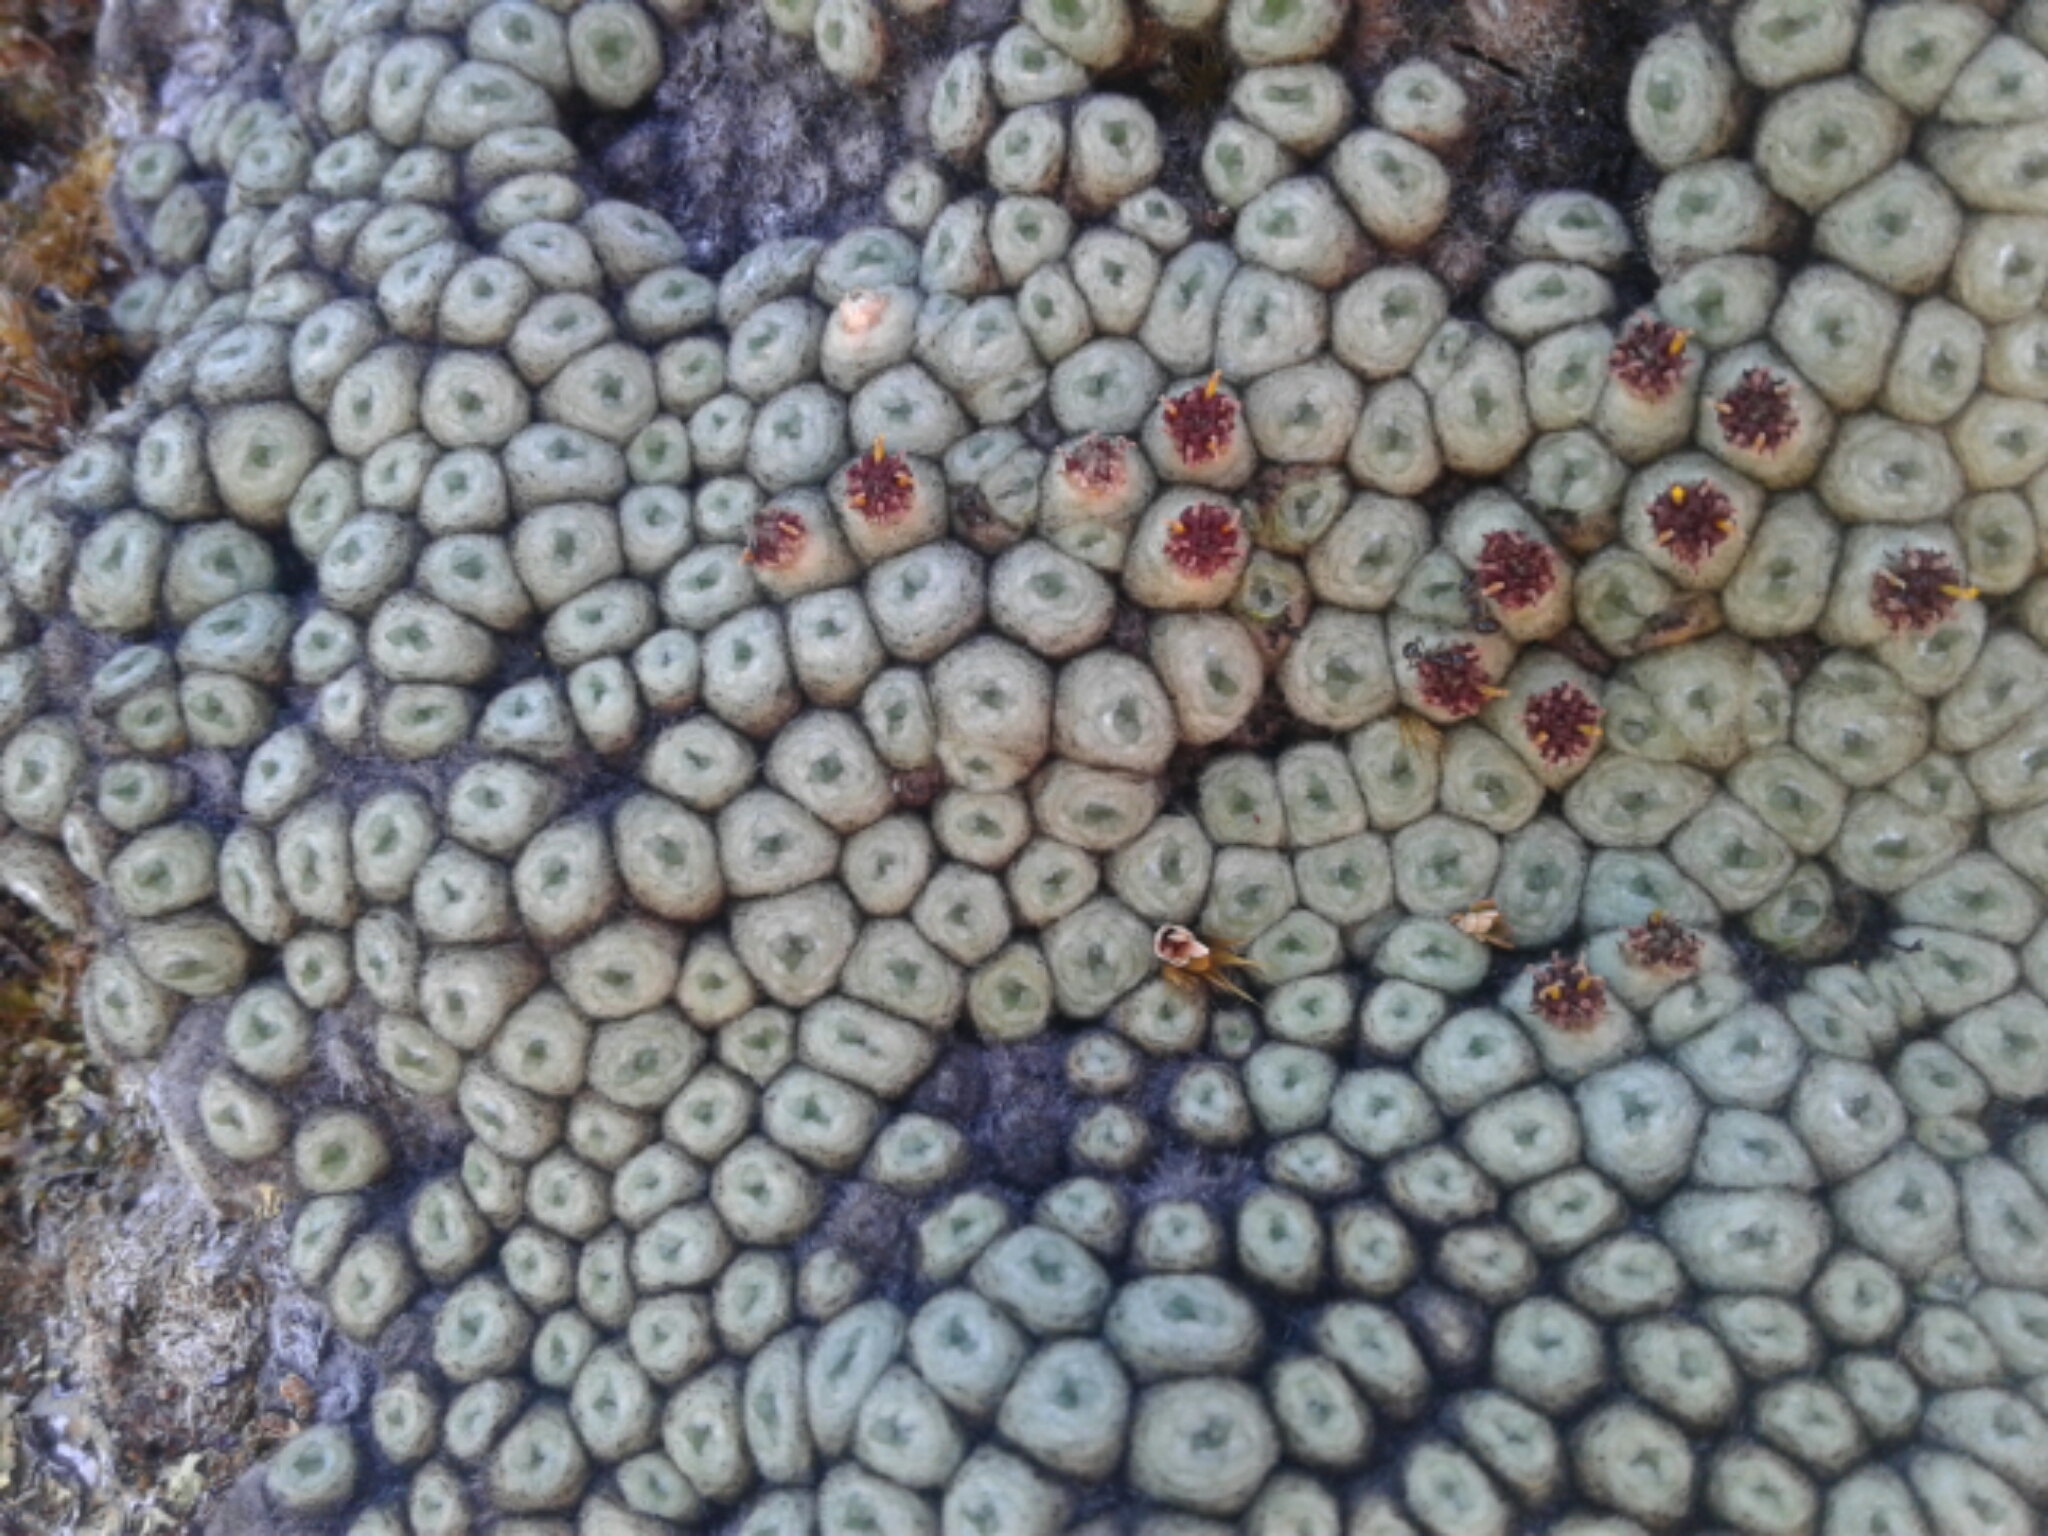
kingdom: Plantae
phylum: Tracheophyta
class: Magnoliopsida
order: Asterales
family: Asteraceae
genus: Raoulia
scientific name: Raoulia
